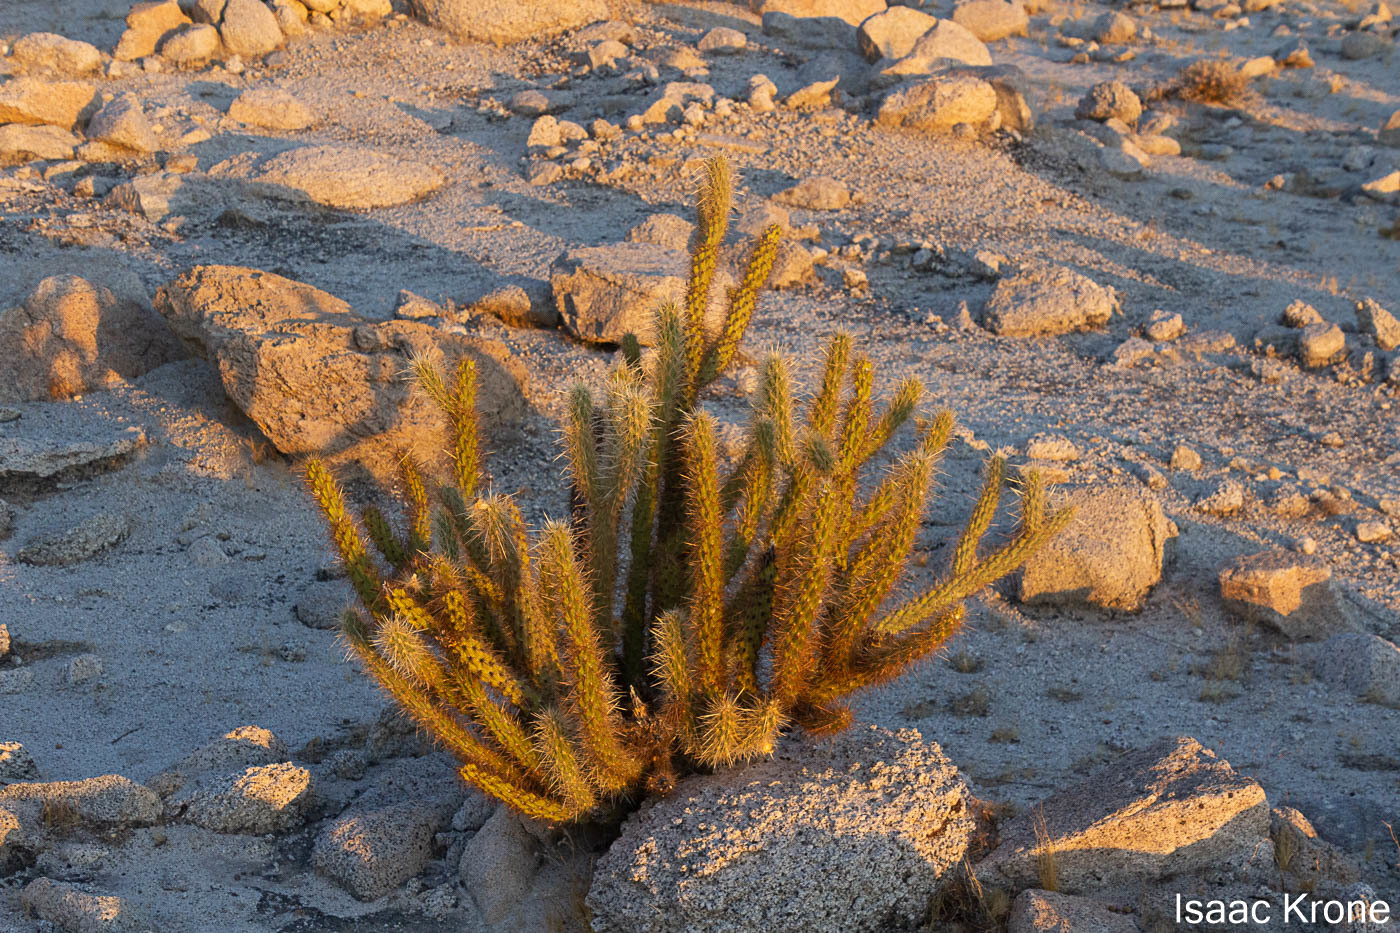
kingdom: Plantae
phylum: Tracheophyta
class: Magnoliopsida
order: Caryophyllales
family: Cactaceae
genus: Cylindropuntia
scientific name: Cylindropuntia ganderi
